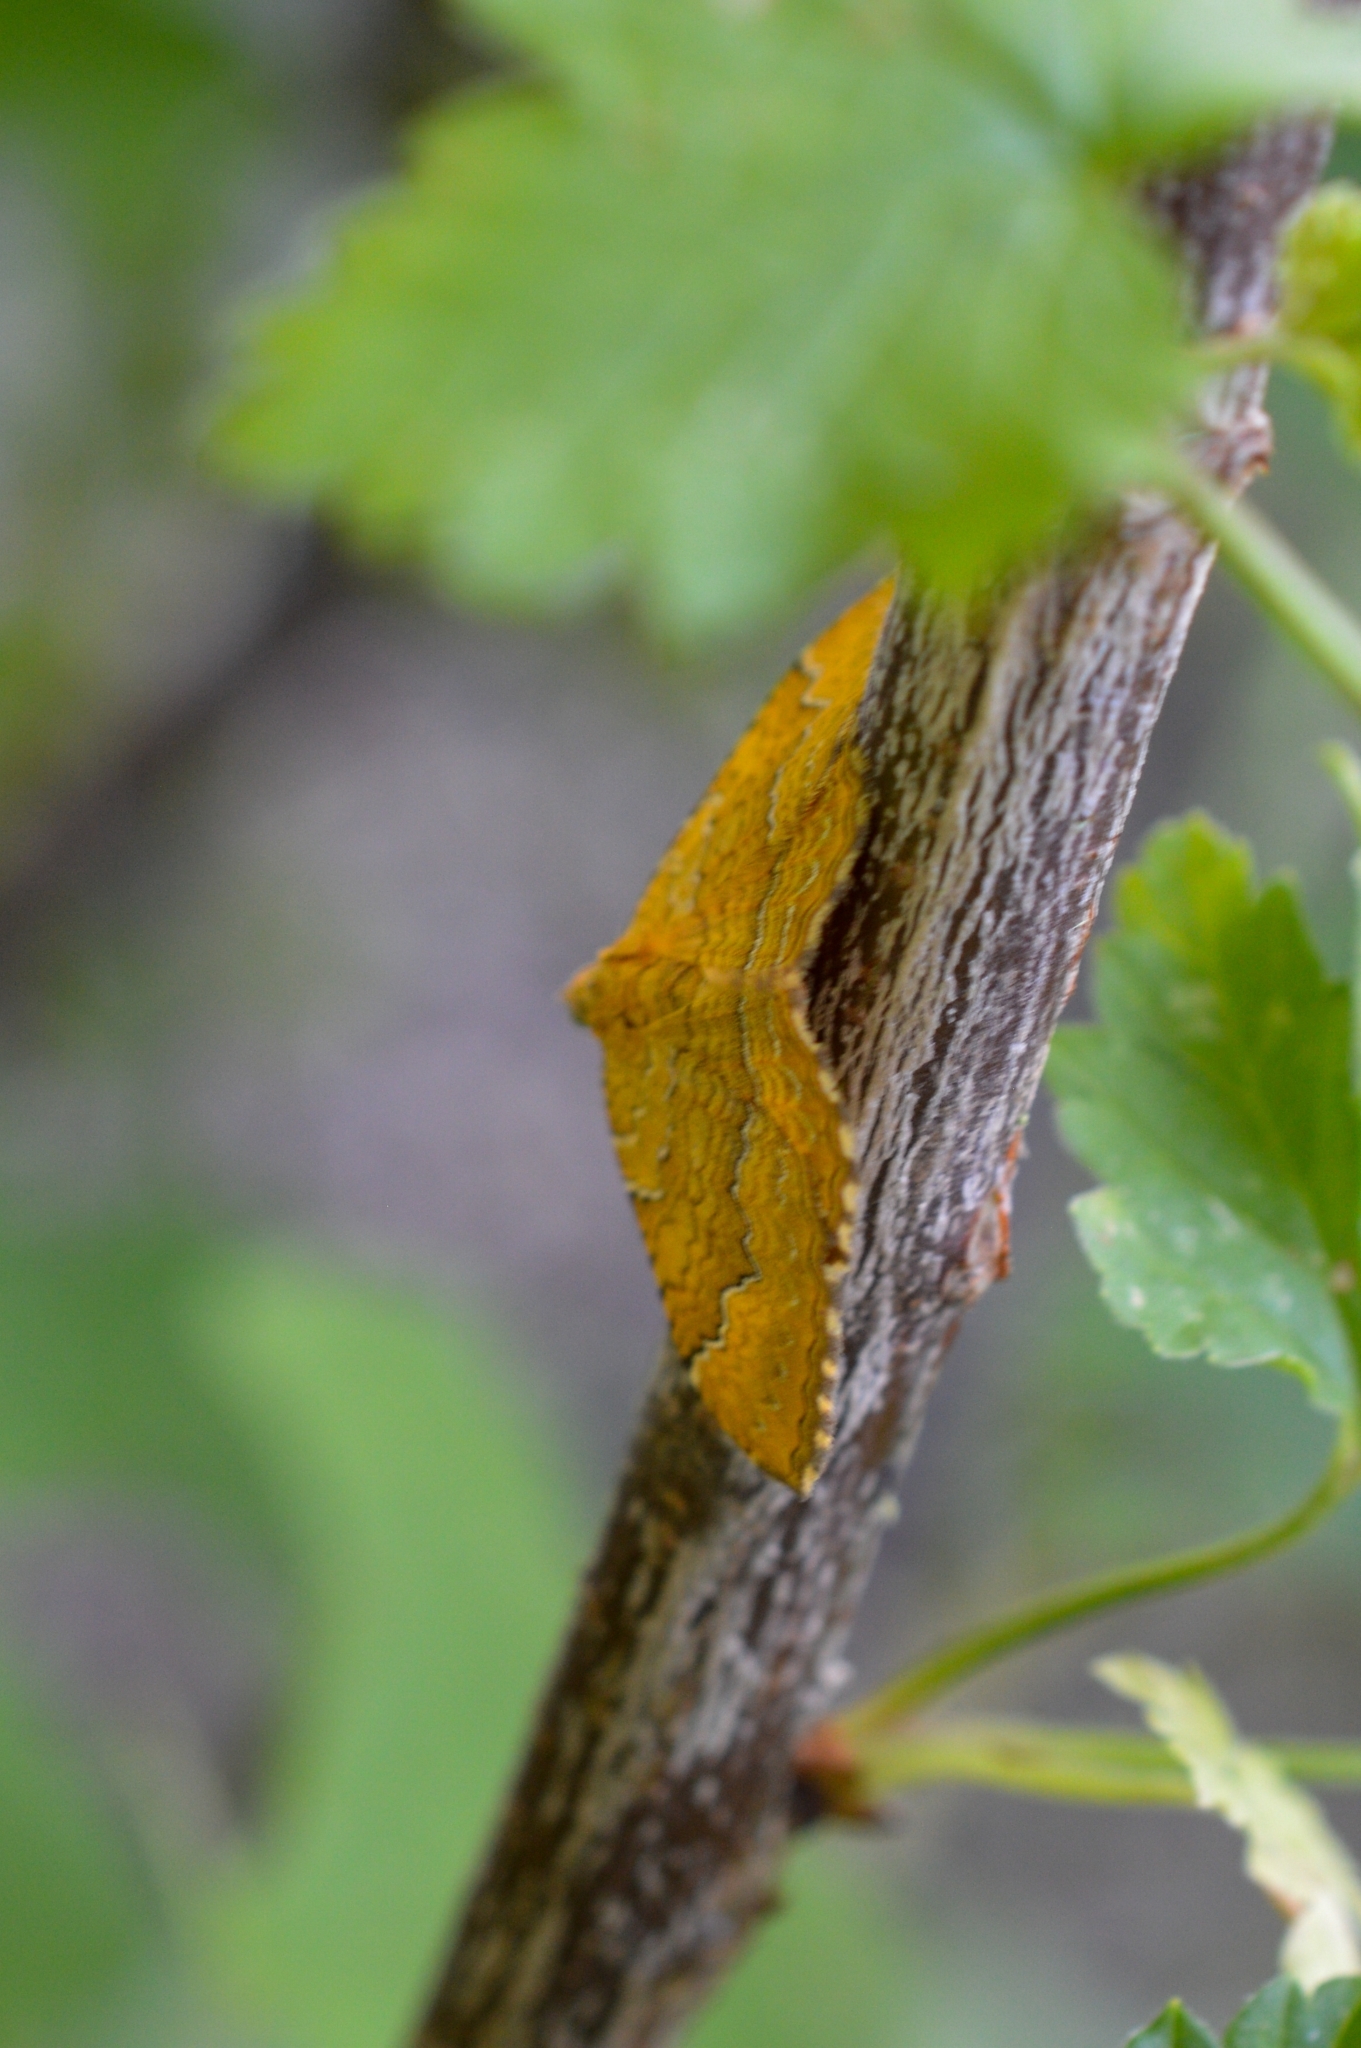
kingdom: Animalia
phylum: Arthropoda
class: Insecta
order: Lepidoptera
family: Geometridae
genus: Camptogramma
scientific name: Camptogramma bilineata
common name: Yellow shell
